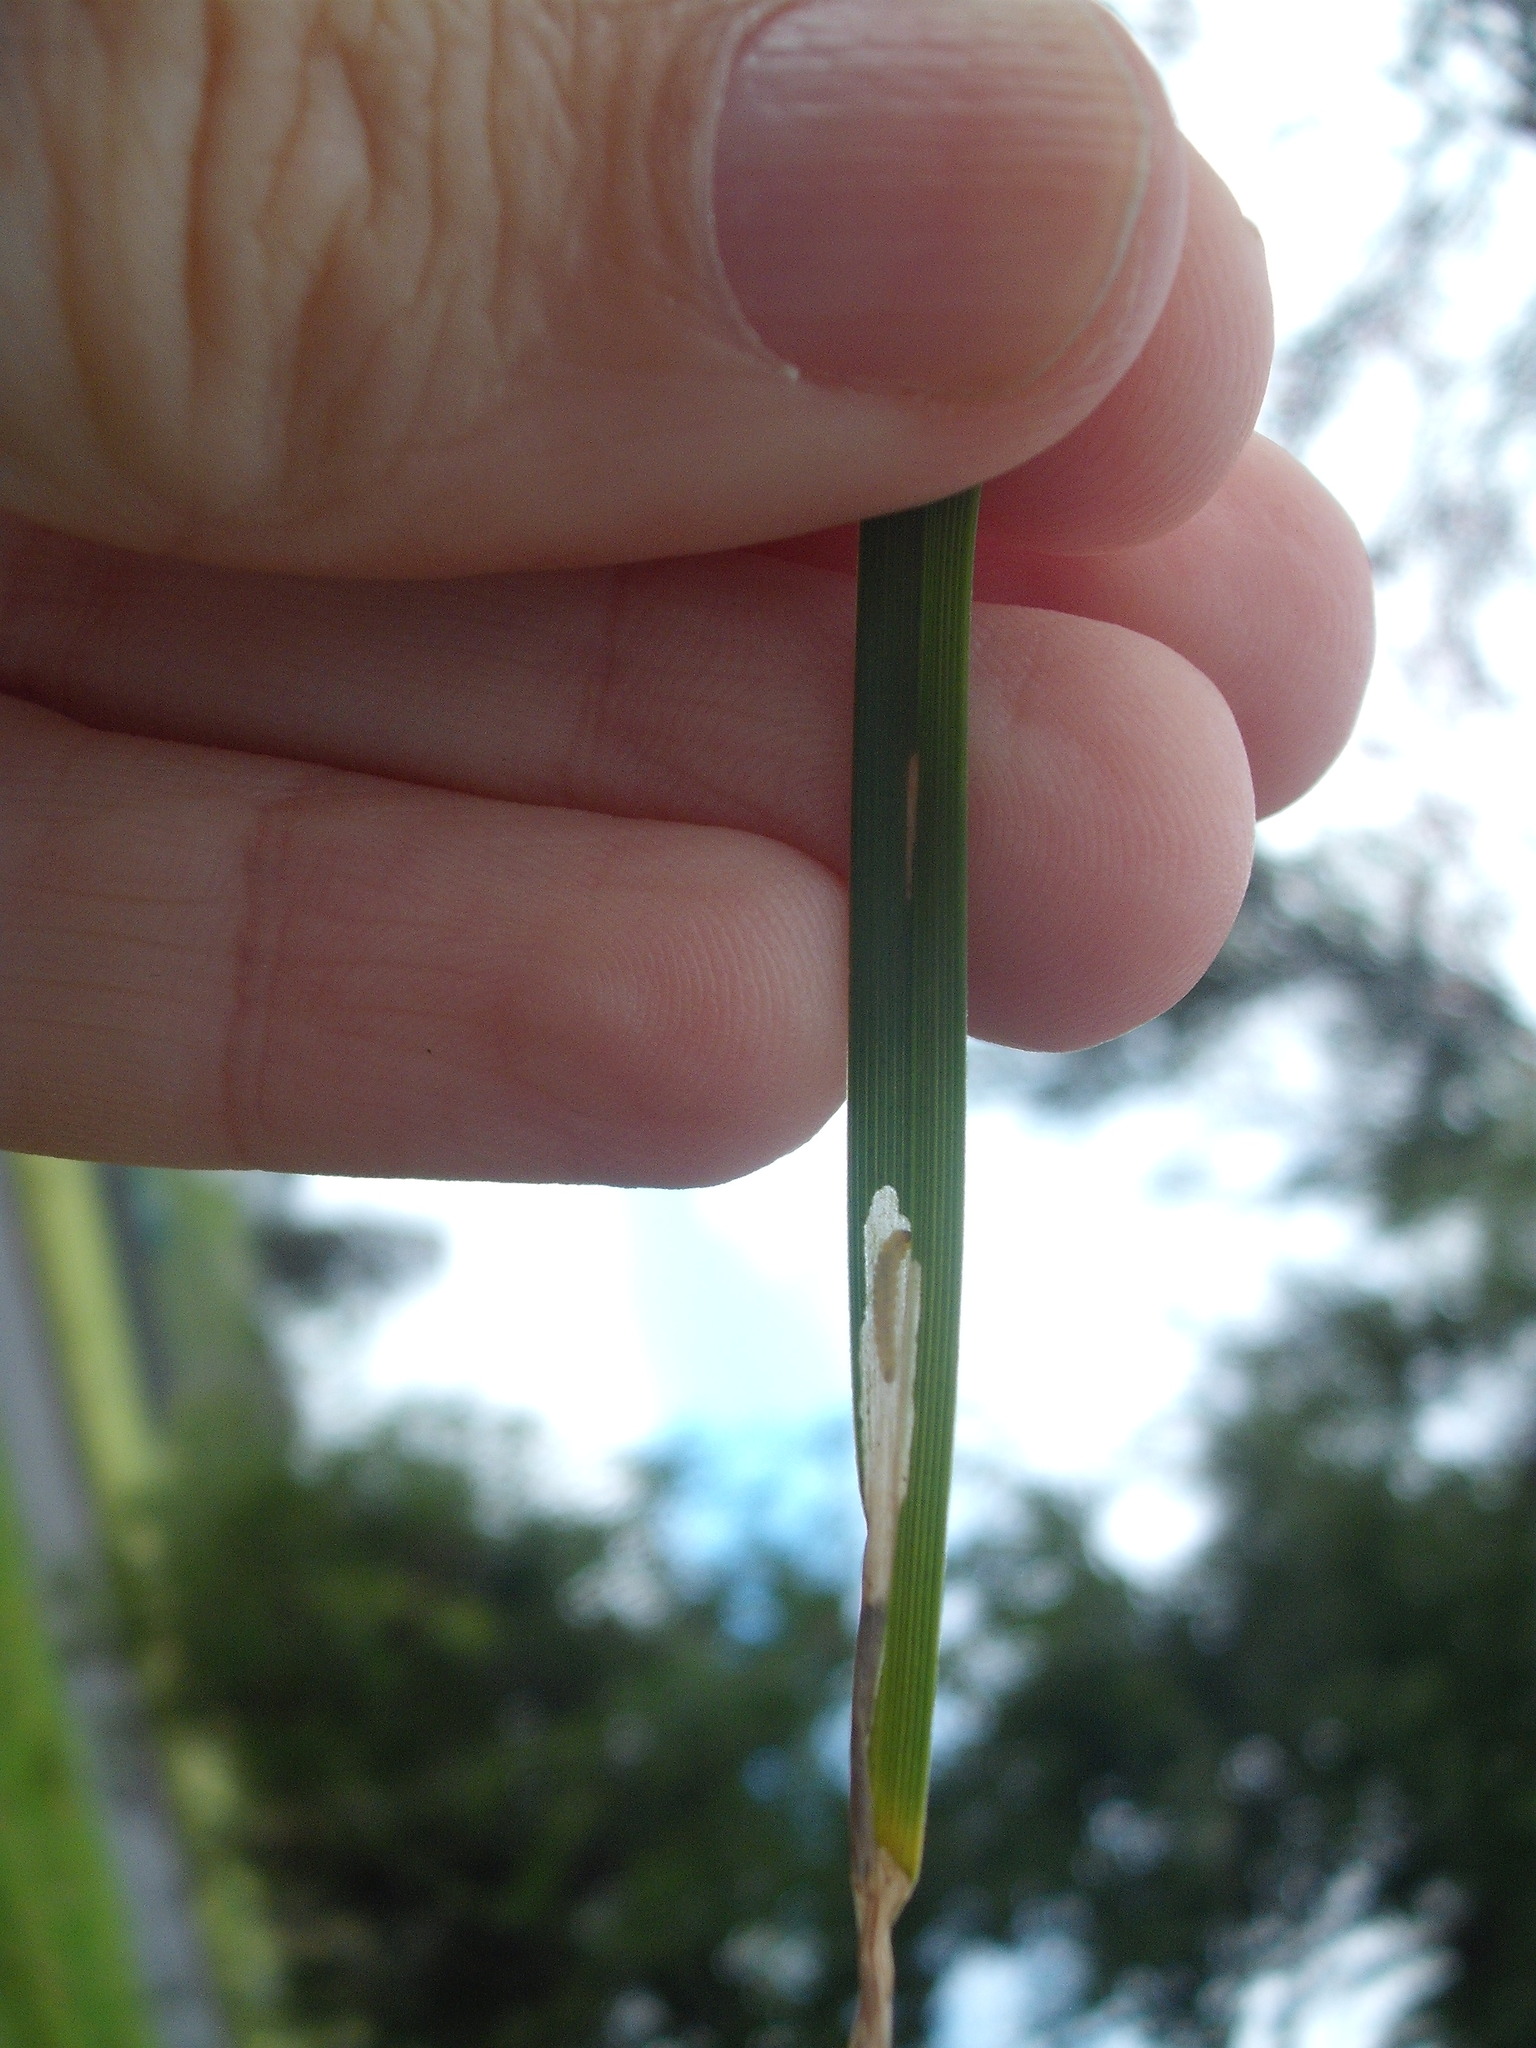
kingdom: Animalia
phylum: Arthropoda
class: Insecta
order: Lepidoptera
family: Cosmopterigidae
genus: Cosmopterix
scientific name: Cosmopterix attenuatella
